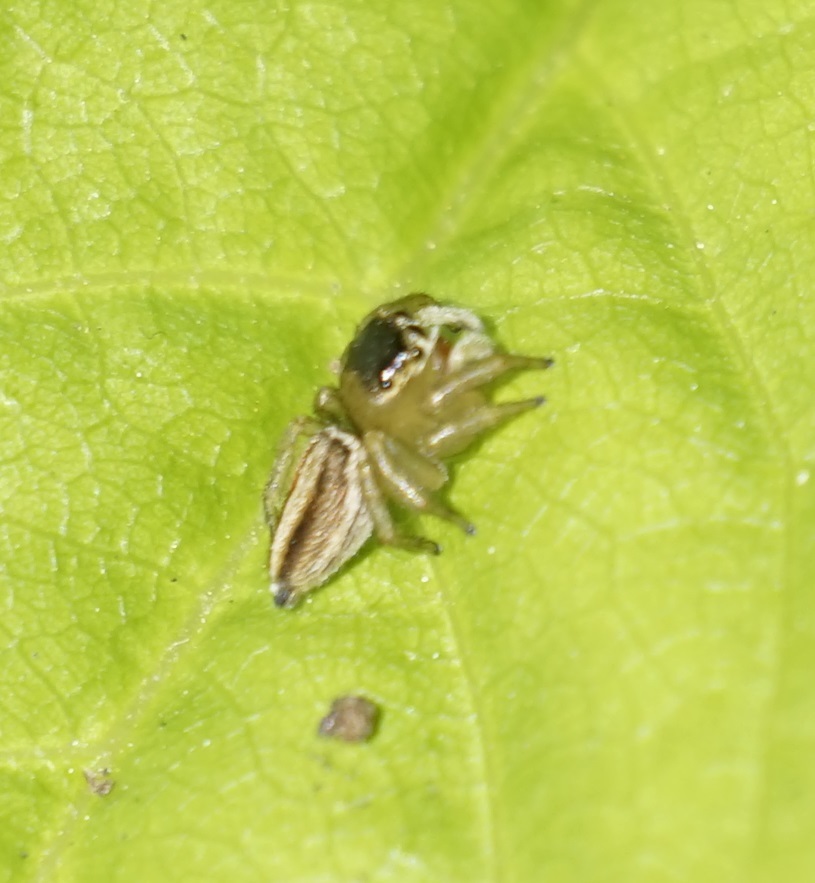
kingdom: Animalia
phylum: Arthropoda
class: Arachnida
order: Araneae
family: Salticidae
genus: Maratus
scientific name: Maratus scutulatus
